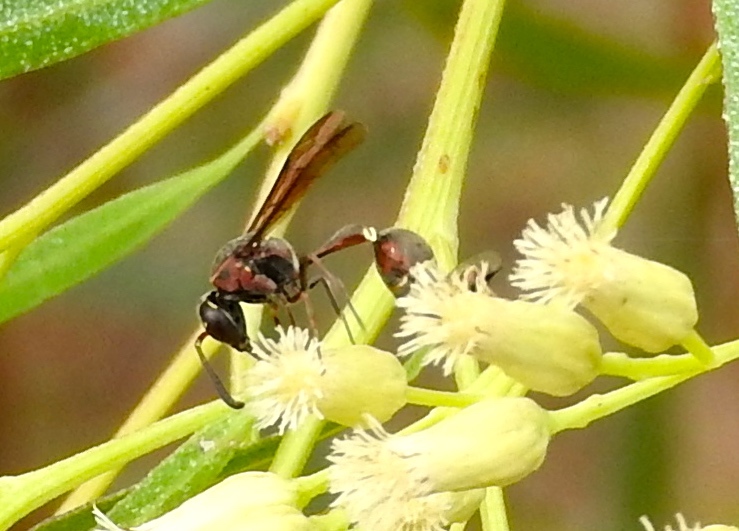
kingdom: Animalia
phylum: Arthropoda
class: Insecta
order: Hymenoptera
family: Eumenidae
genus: Minixi
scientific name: Minixi mexicanum
